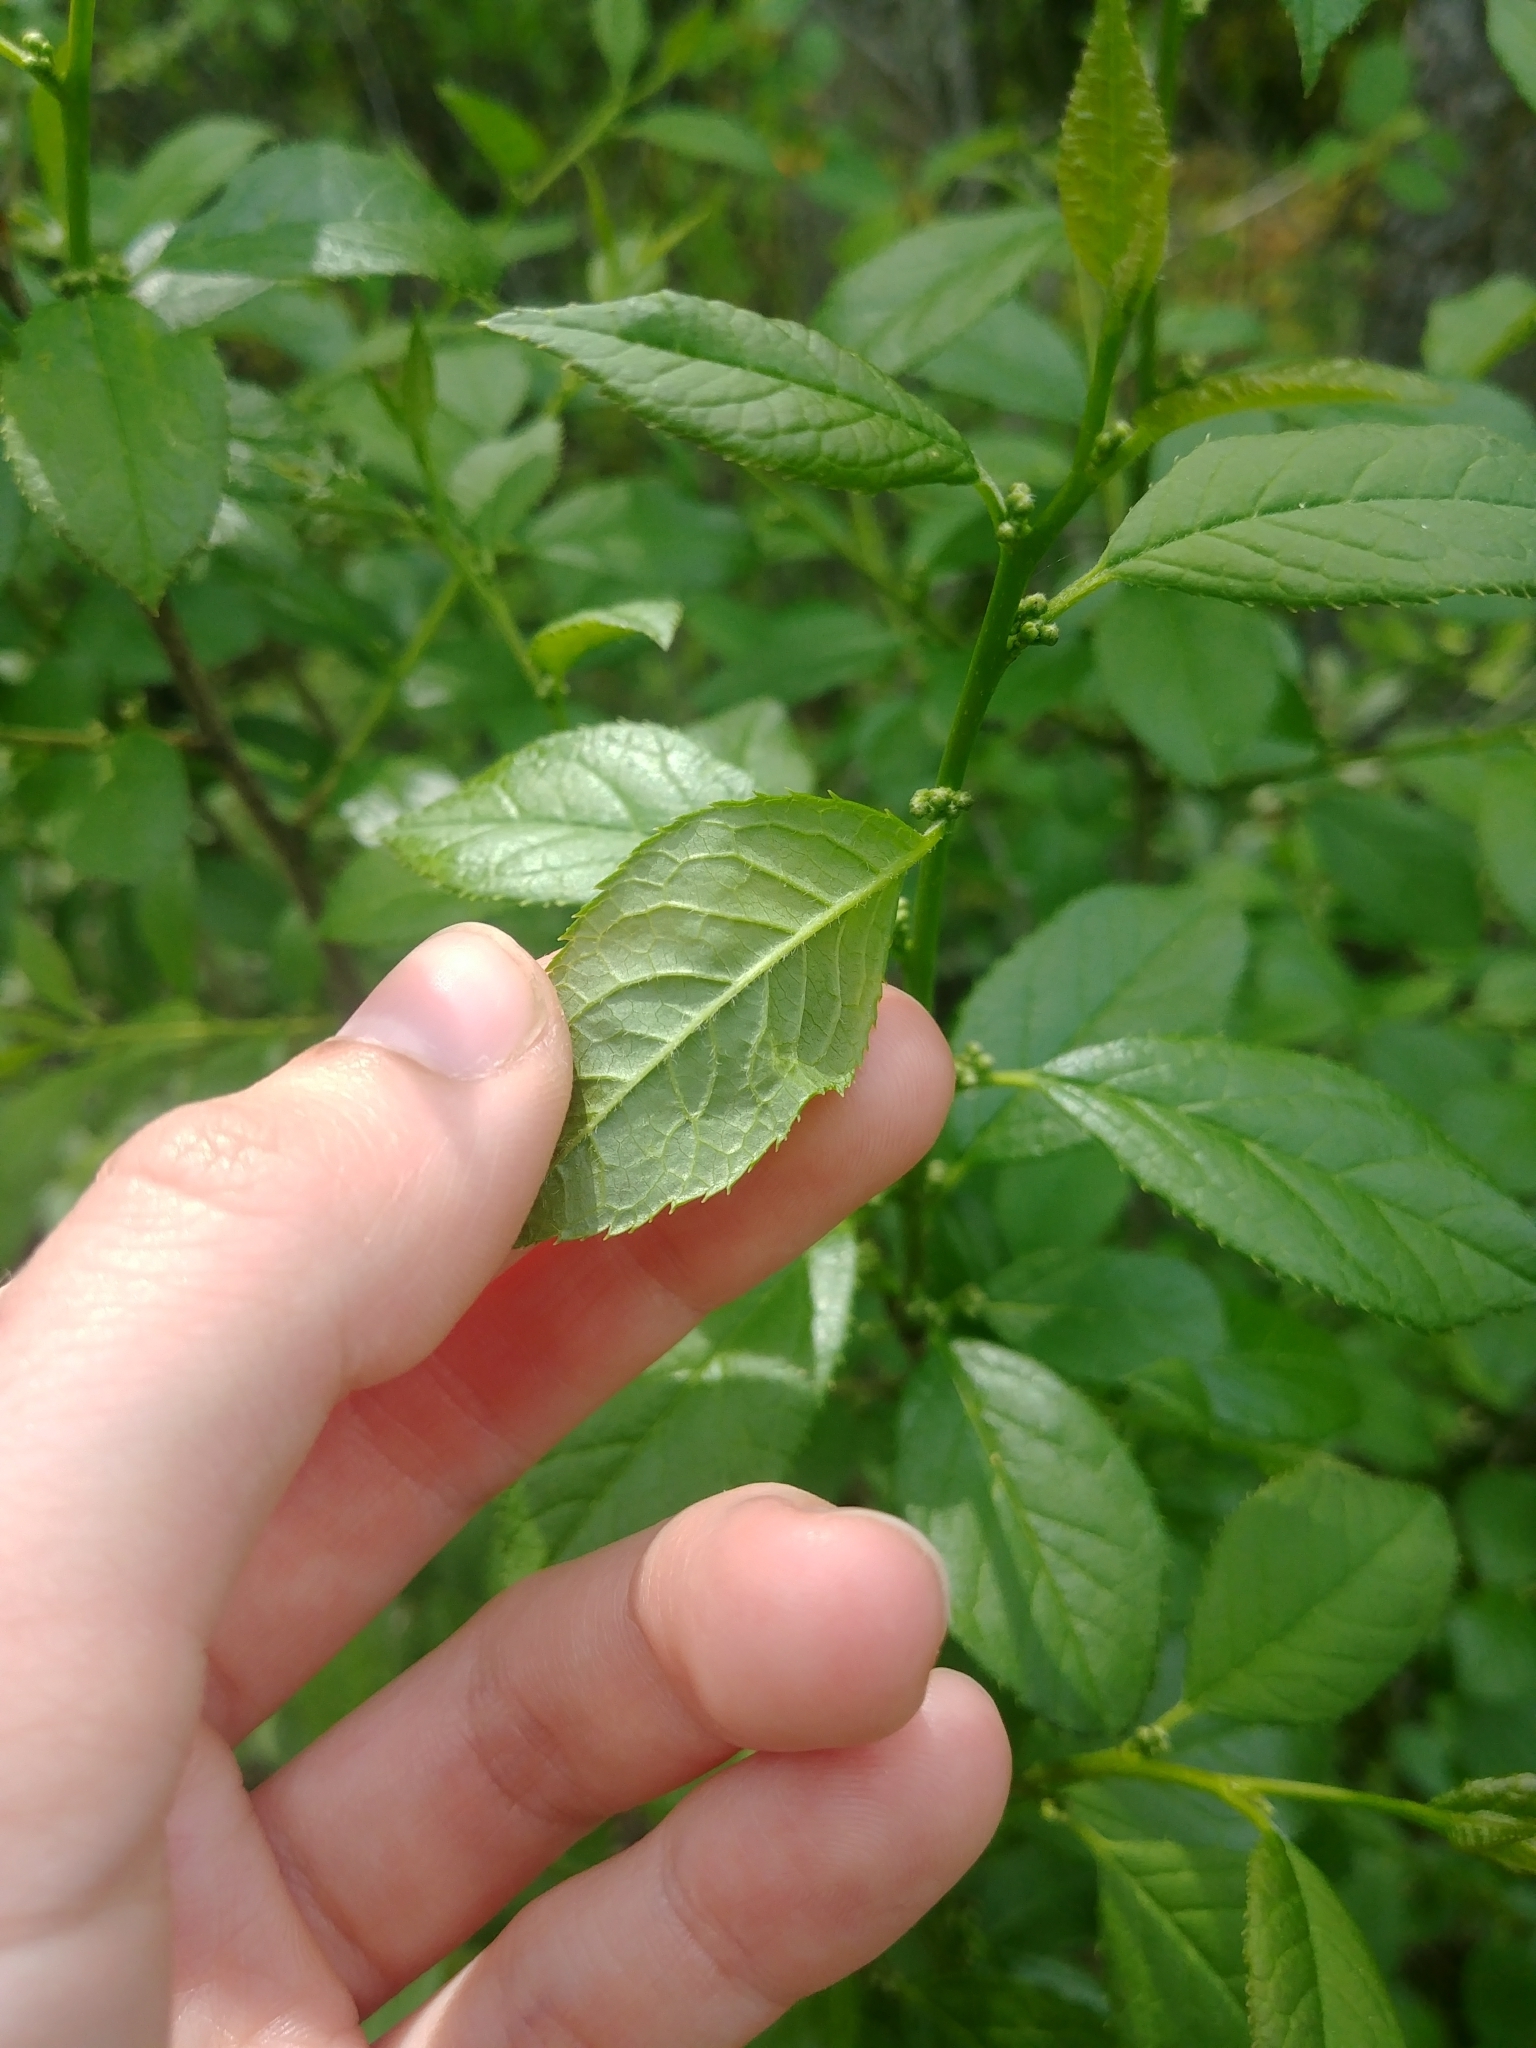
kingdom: Plantae
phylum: Tracheophyta
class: Magnoliopsida
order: Aquifoliales
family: Aquifoliaceae
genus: Ilex
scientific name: Ilex verticillata
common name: Virginia winterberry
